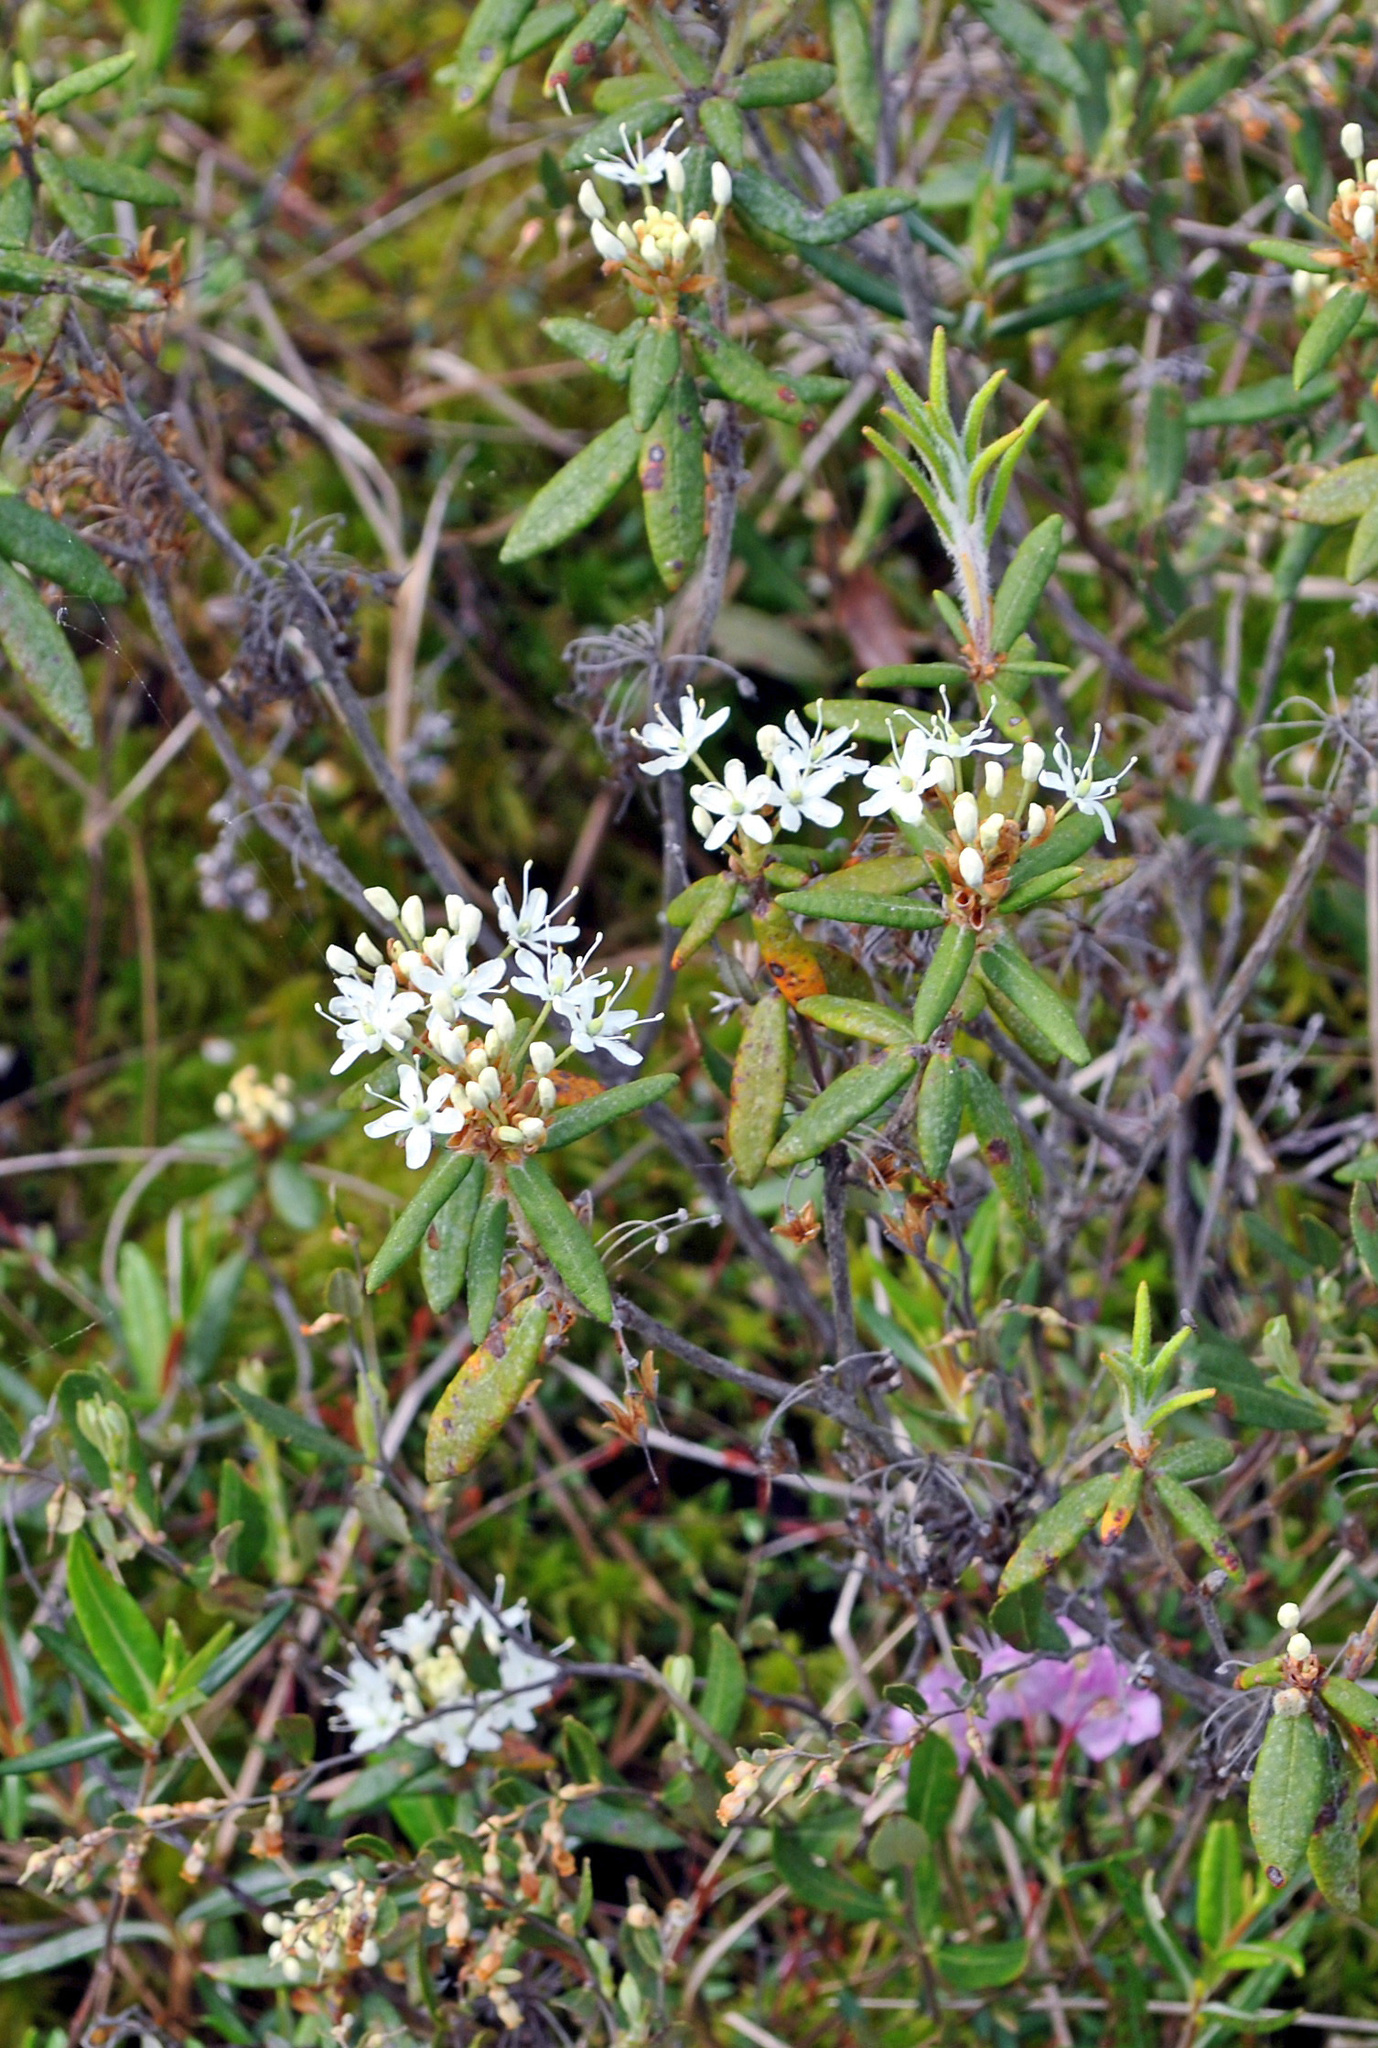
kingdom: Plantae
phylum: Tracheophyta
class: Magnoliopsida
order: Ericales
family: Ericaceae
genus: Rhododendron
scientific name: Rhododendron groenlandicum
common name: Bog labrador tea
